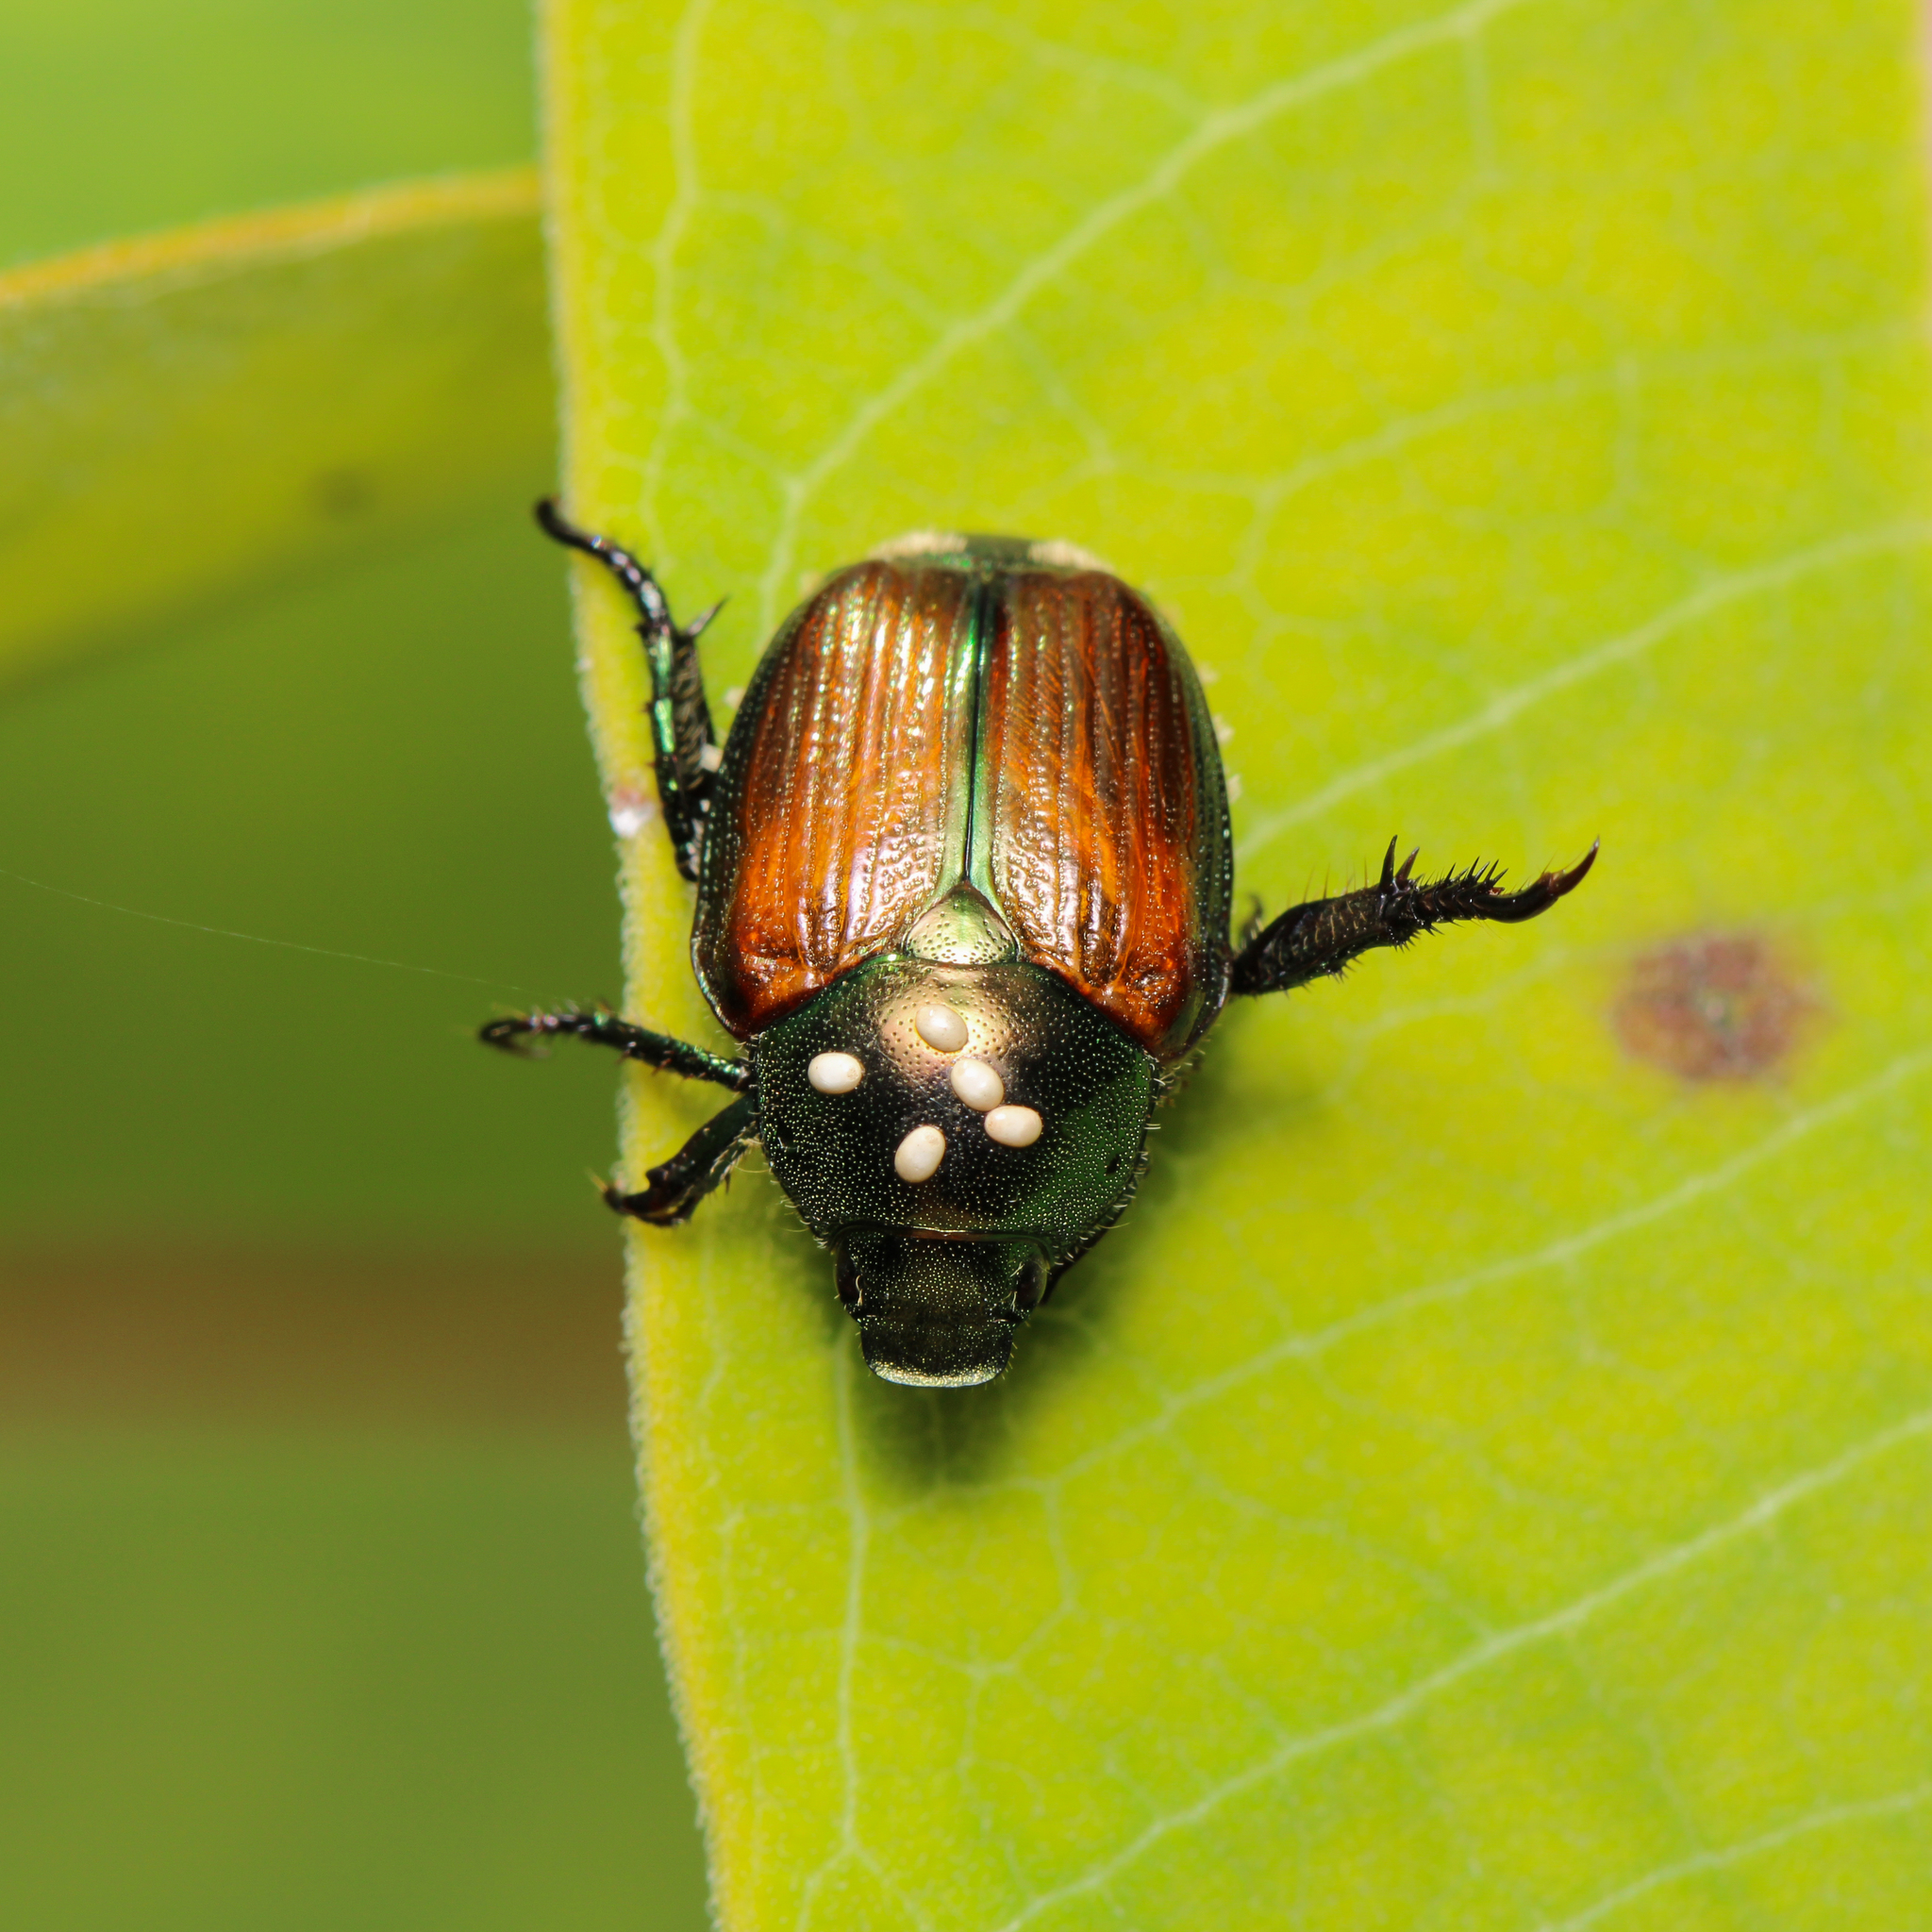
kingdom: Animalia
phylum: Arthropoda
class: Insecta
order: Coleoptera
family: Scarabaeidae
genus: Popillia
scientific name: Popillia japonica
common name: Japanese beetle
